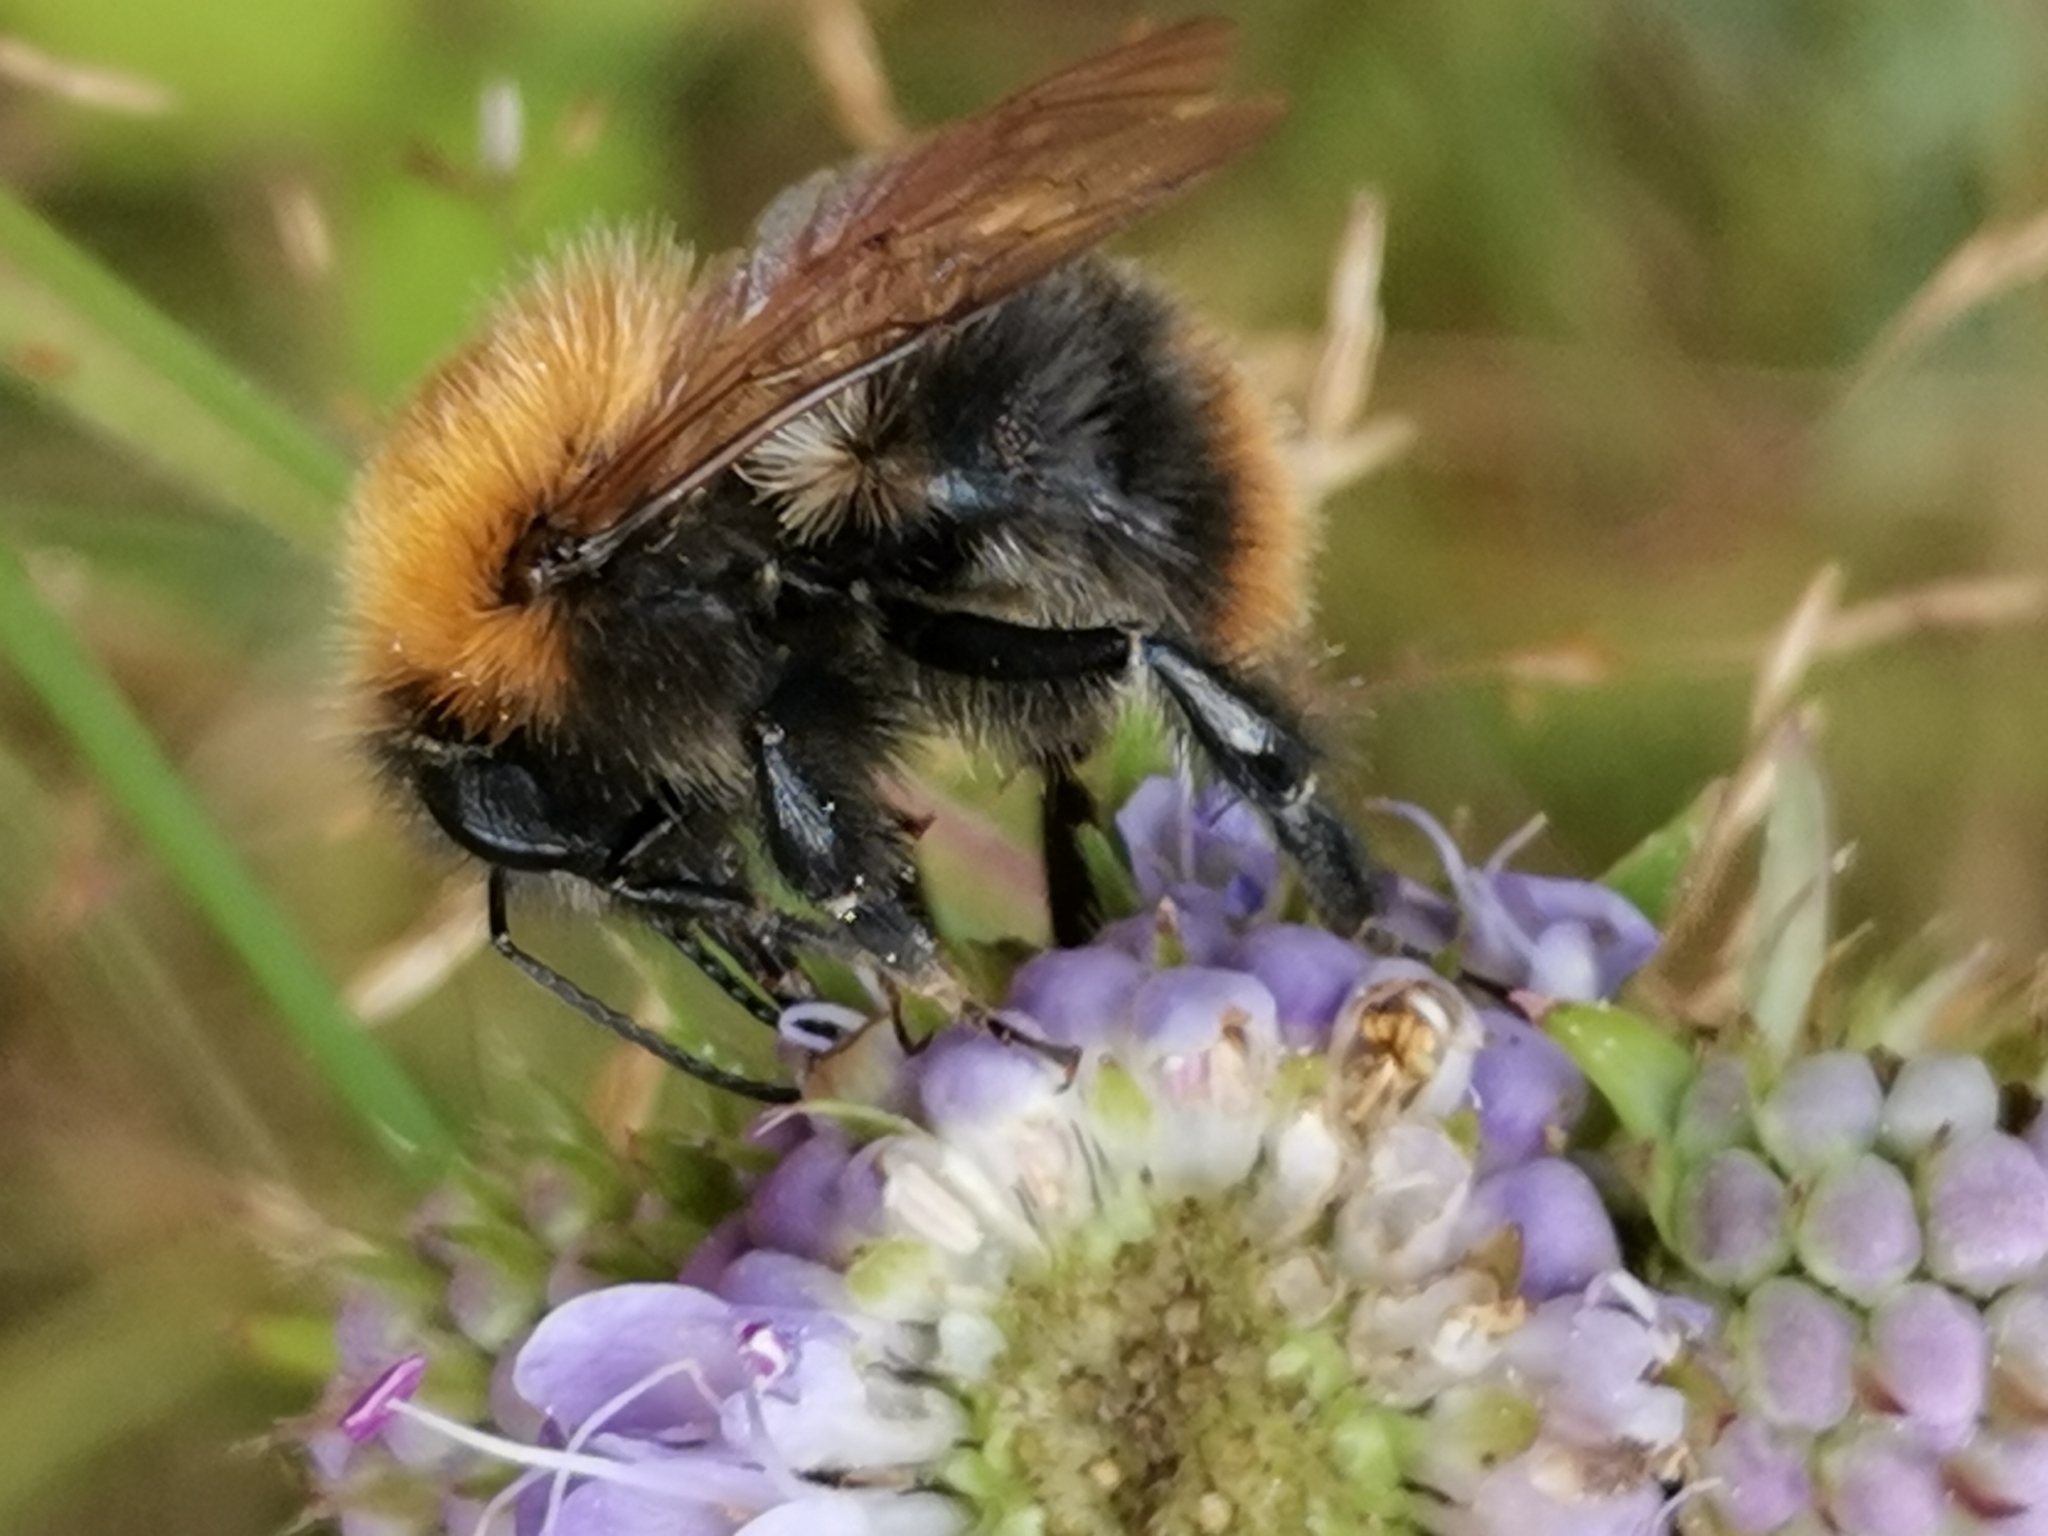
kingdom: Animalia
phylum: Arthropoda
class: Insecta
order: Hymenoptera
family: Apidae
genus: Bombus
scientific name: Bombus pascuorum
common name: Common carder bee
